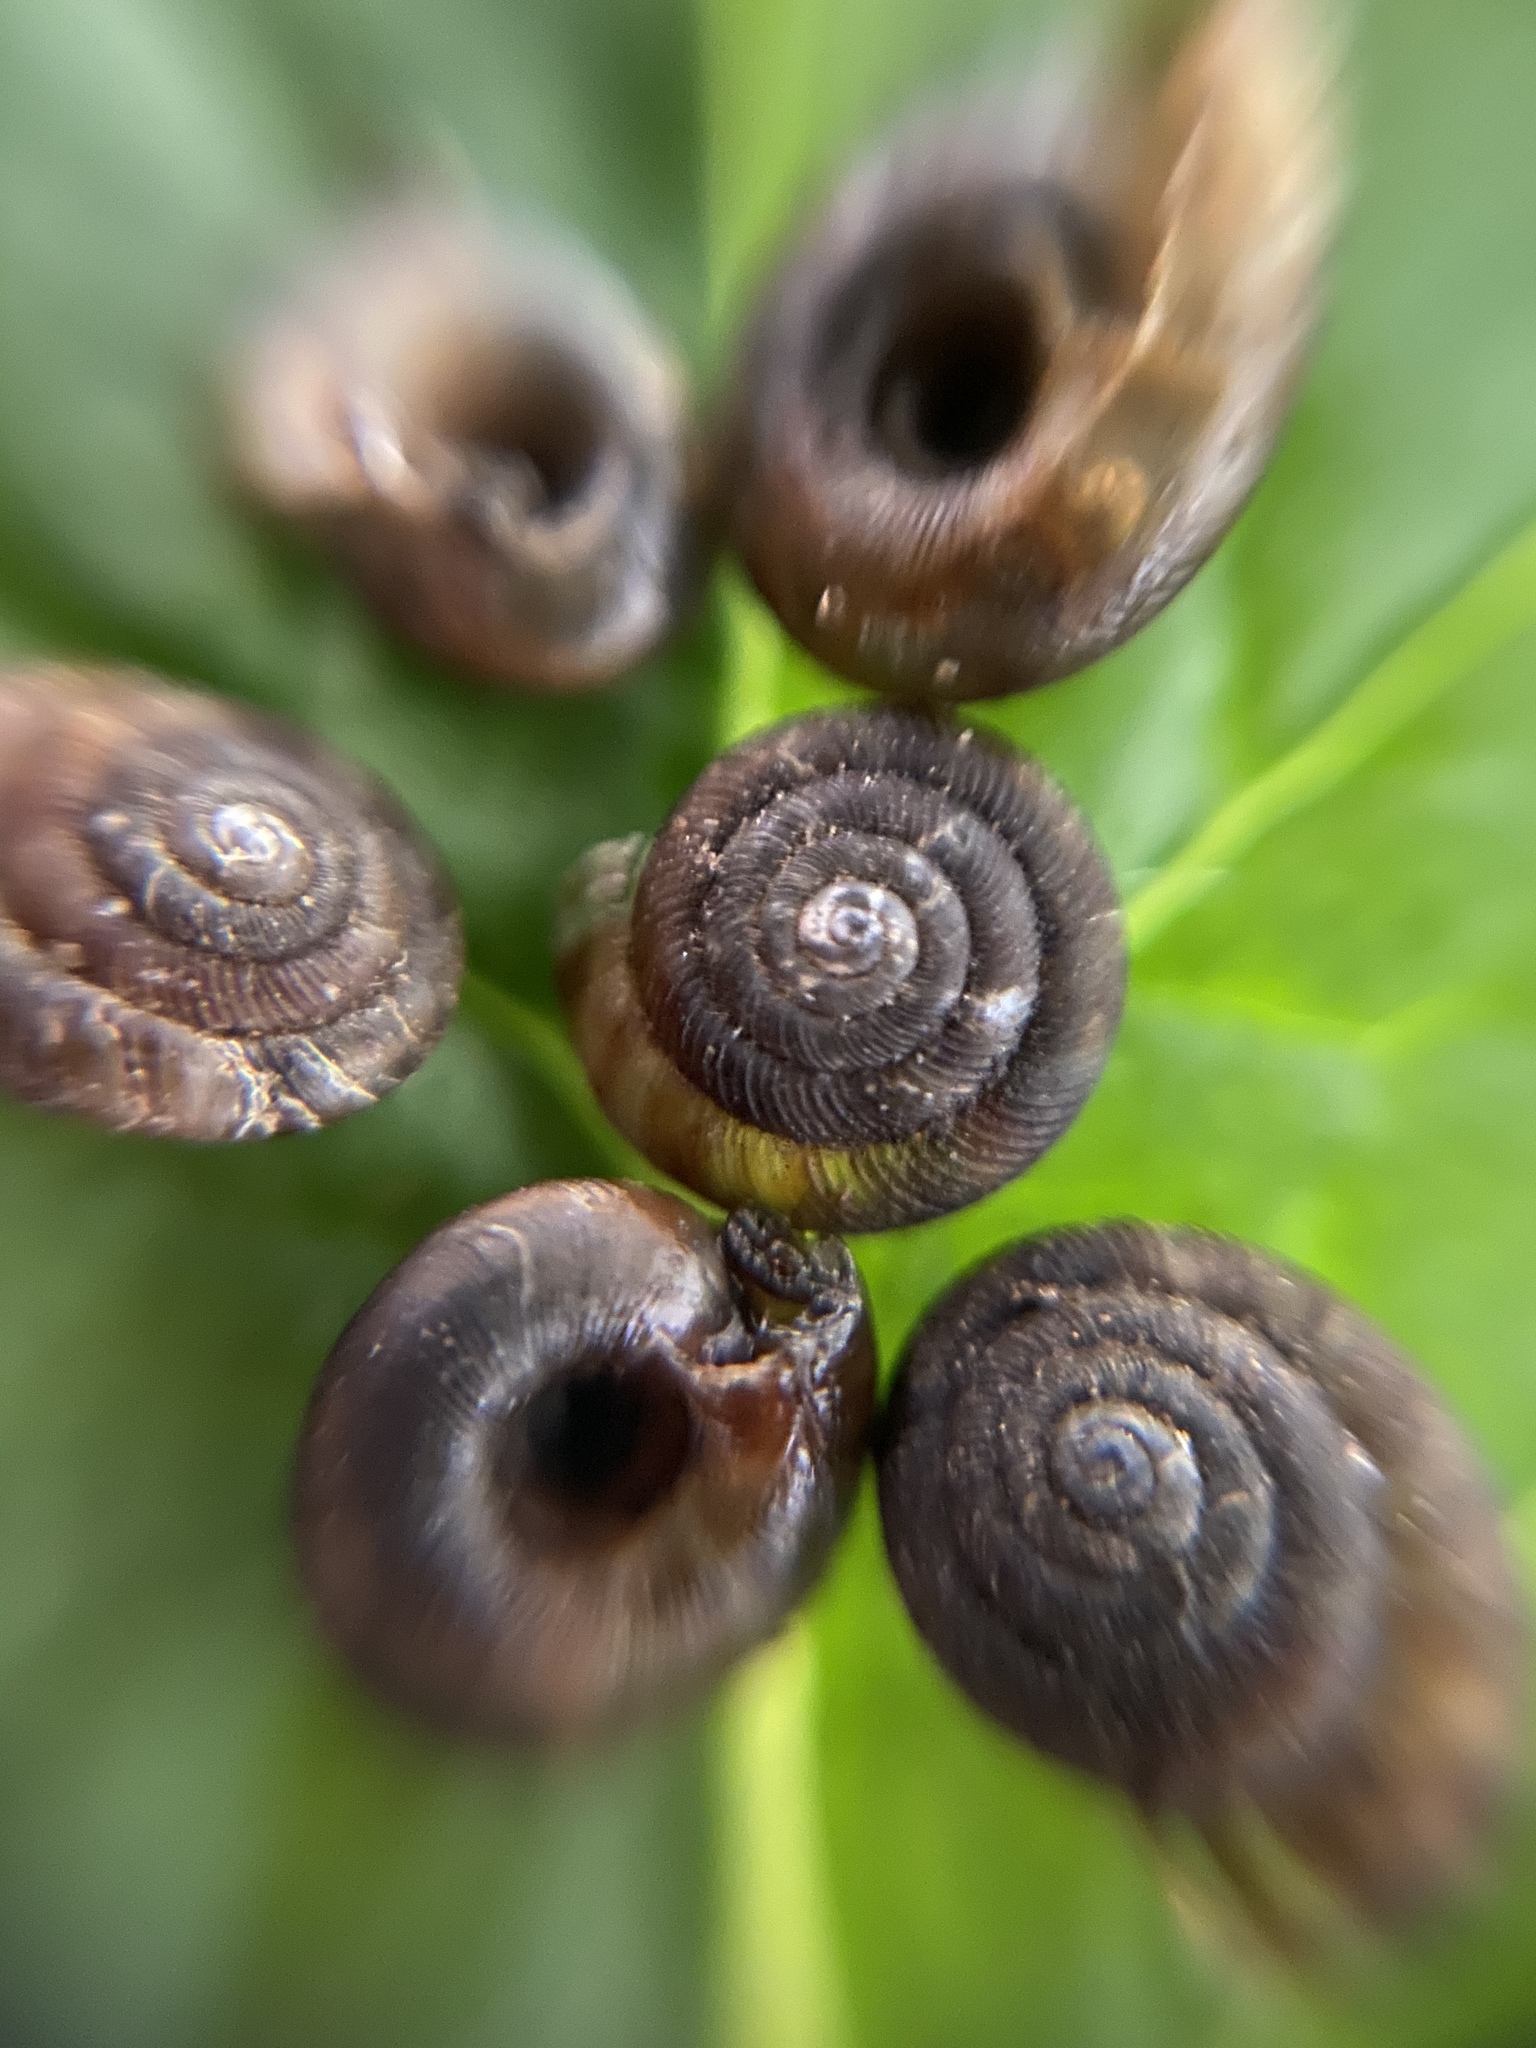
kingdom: Animalia
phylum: Mollusca
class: Gastropoda
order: Stylommatophora
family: Discidae
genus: Discus
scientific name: Discus rotundatus
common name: Rounded snail
